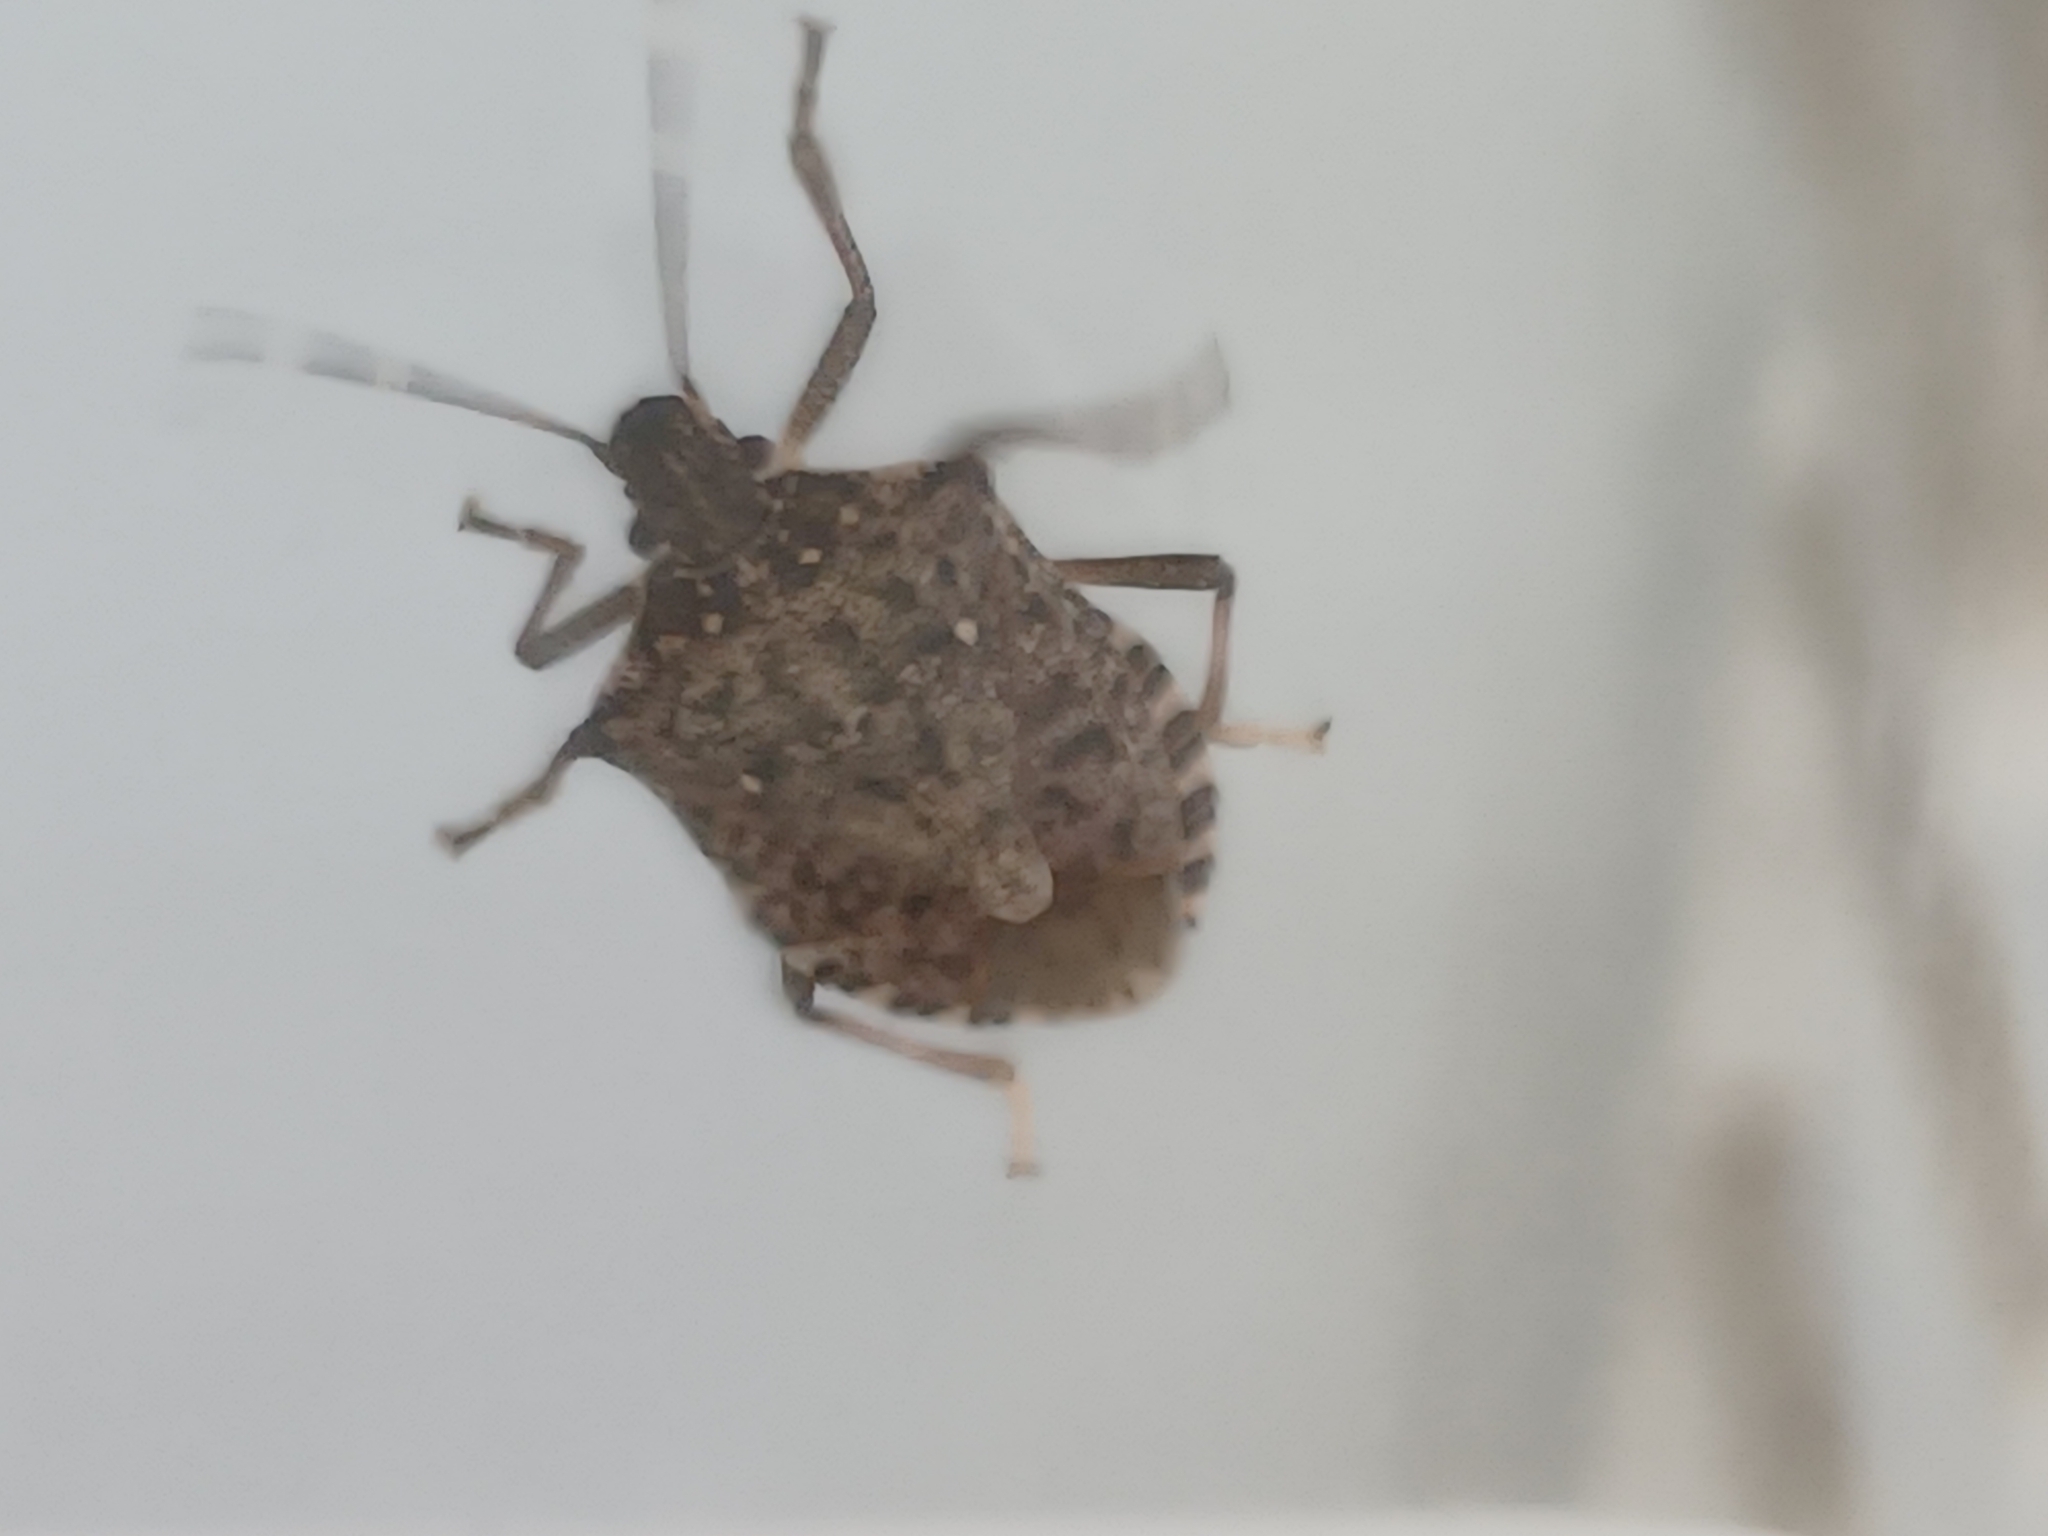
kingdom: Animalia
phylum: Arthropoda
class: Insecta
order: Hemiptera
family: Pentatomidae
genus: Halyomorpha
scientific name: Halyomorpha halys
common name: Brown marmorated stink bug
